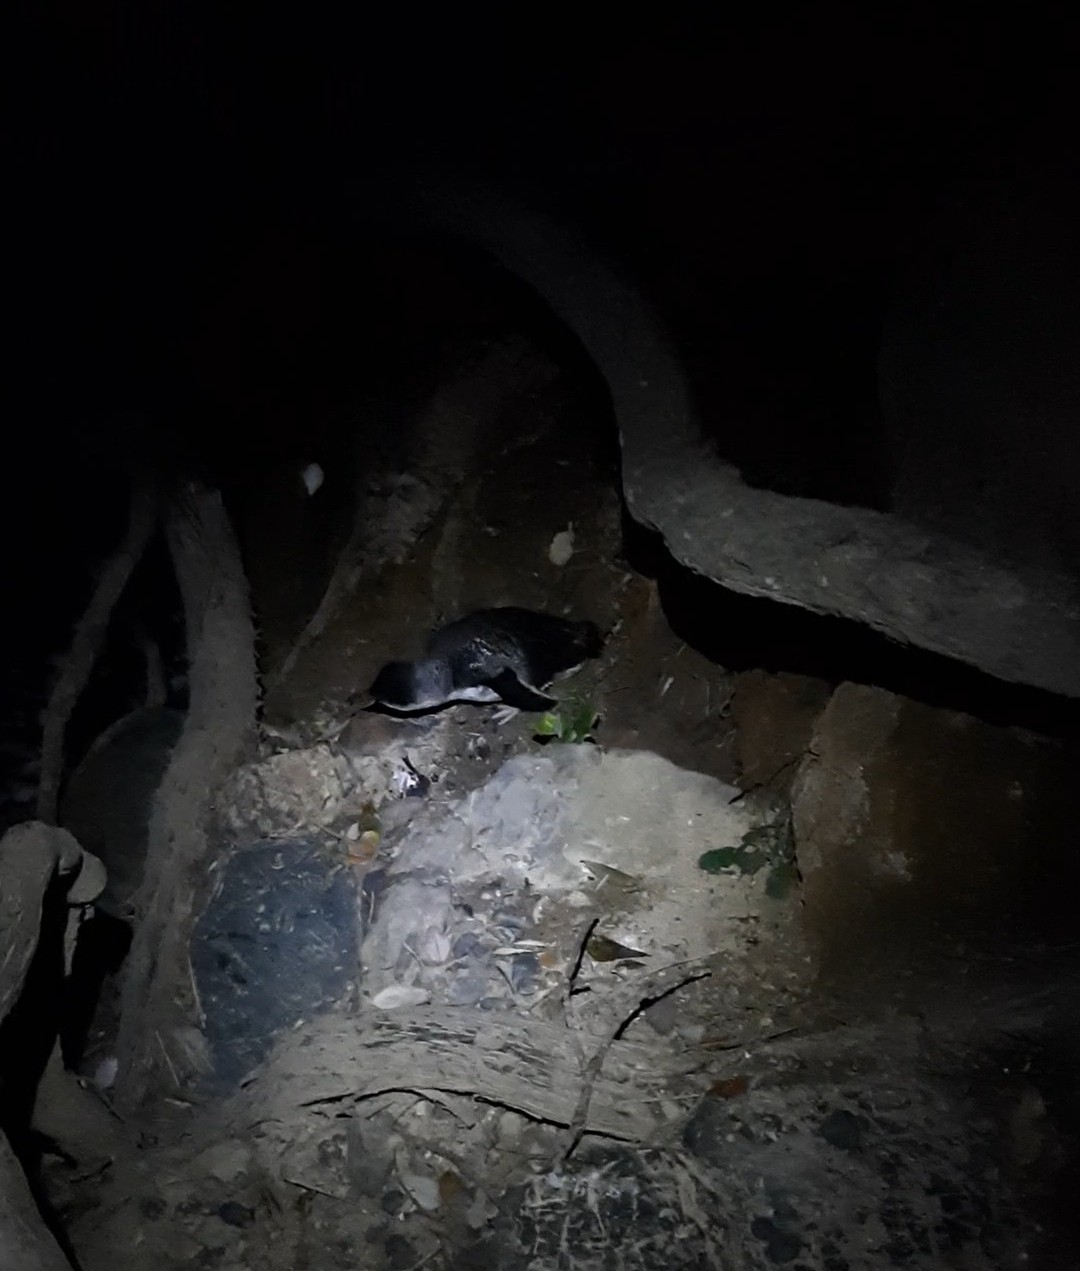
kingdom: Animalia
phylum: Chordata
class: Aves
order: Sphenisciformes
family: Spheniscidae
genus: Eudyptula
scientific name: Eudyptula minor
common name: Little penguin
